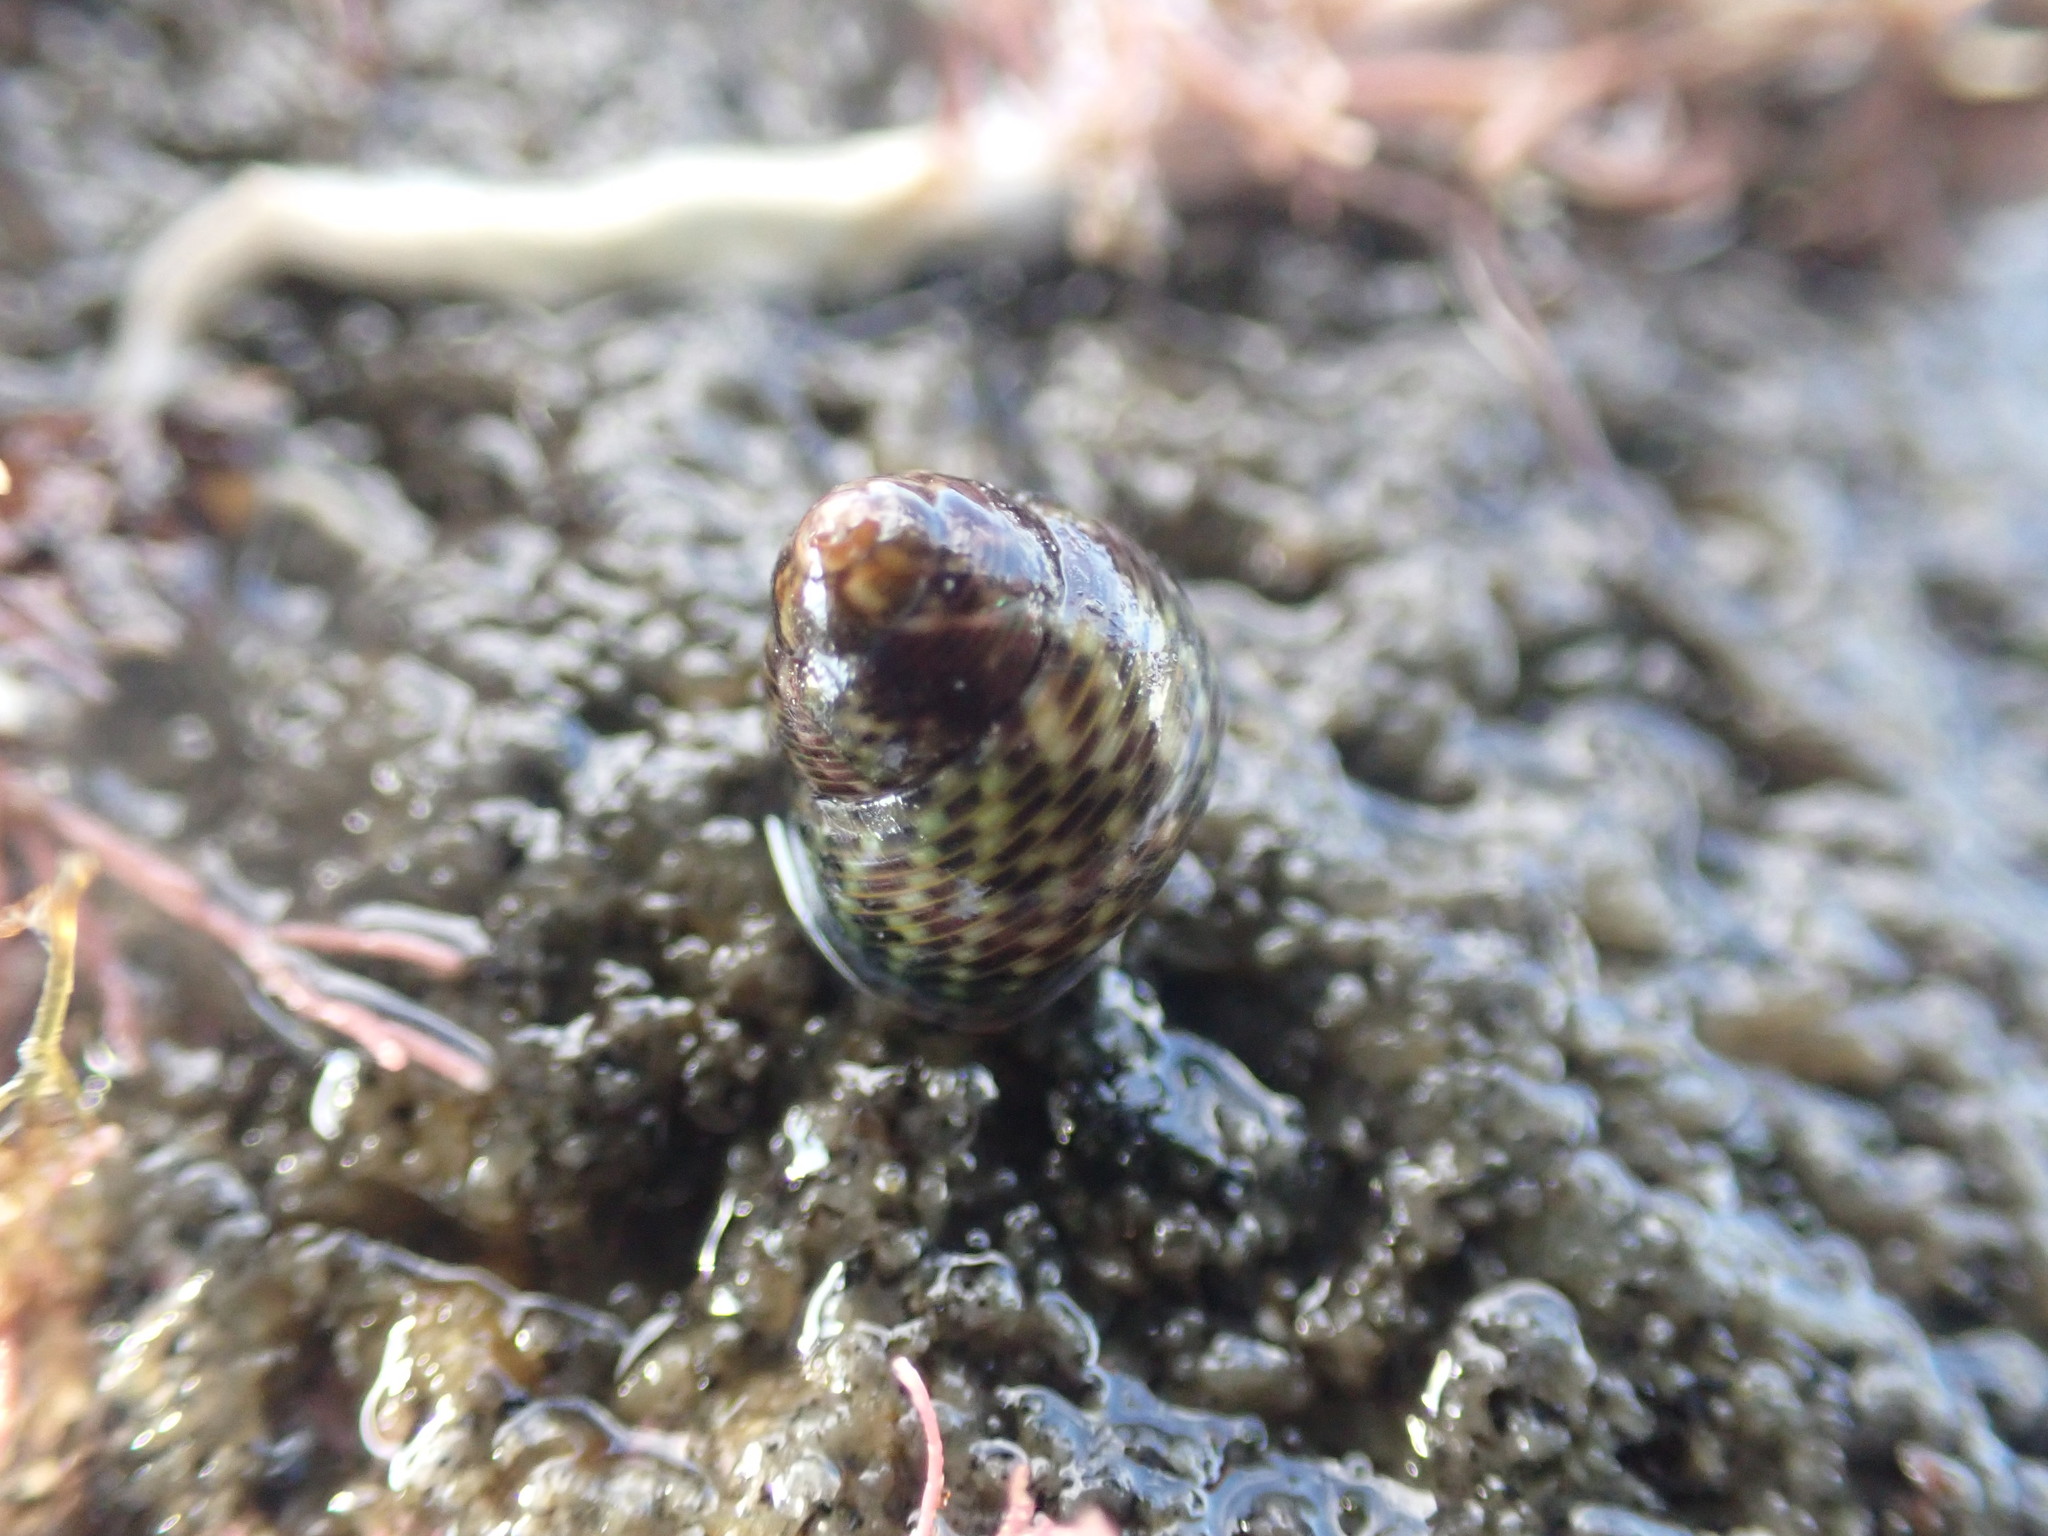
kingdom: Animalia
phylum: Mollusca
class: Gastropoda
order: Trochida
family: Trochidae
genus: Micrelenchus
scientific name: Micrelenchus tessellatus
